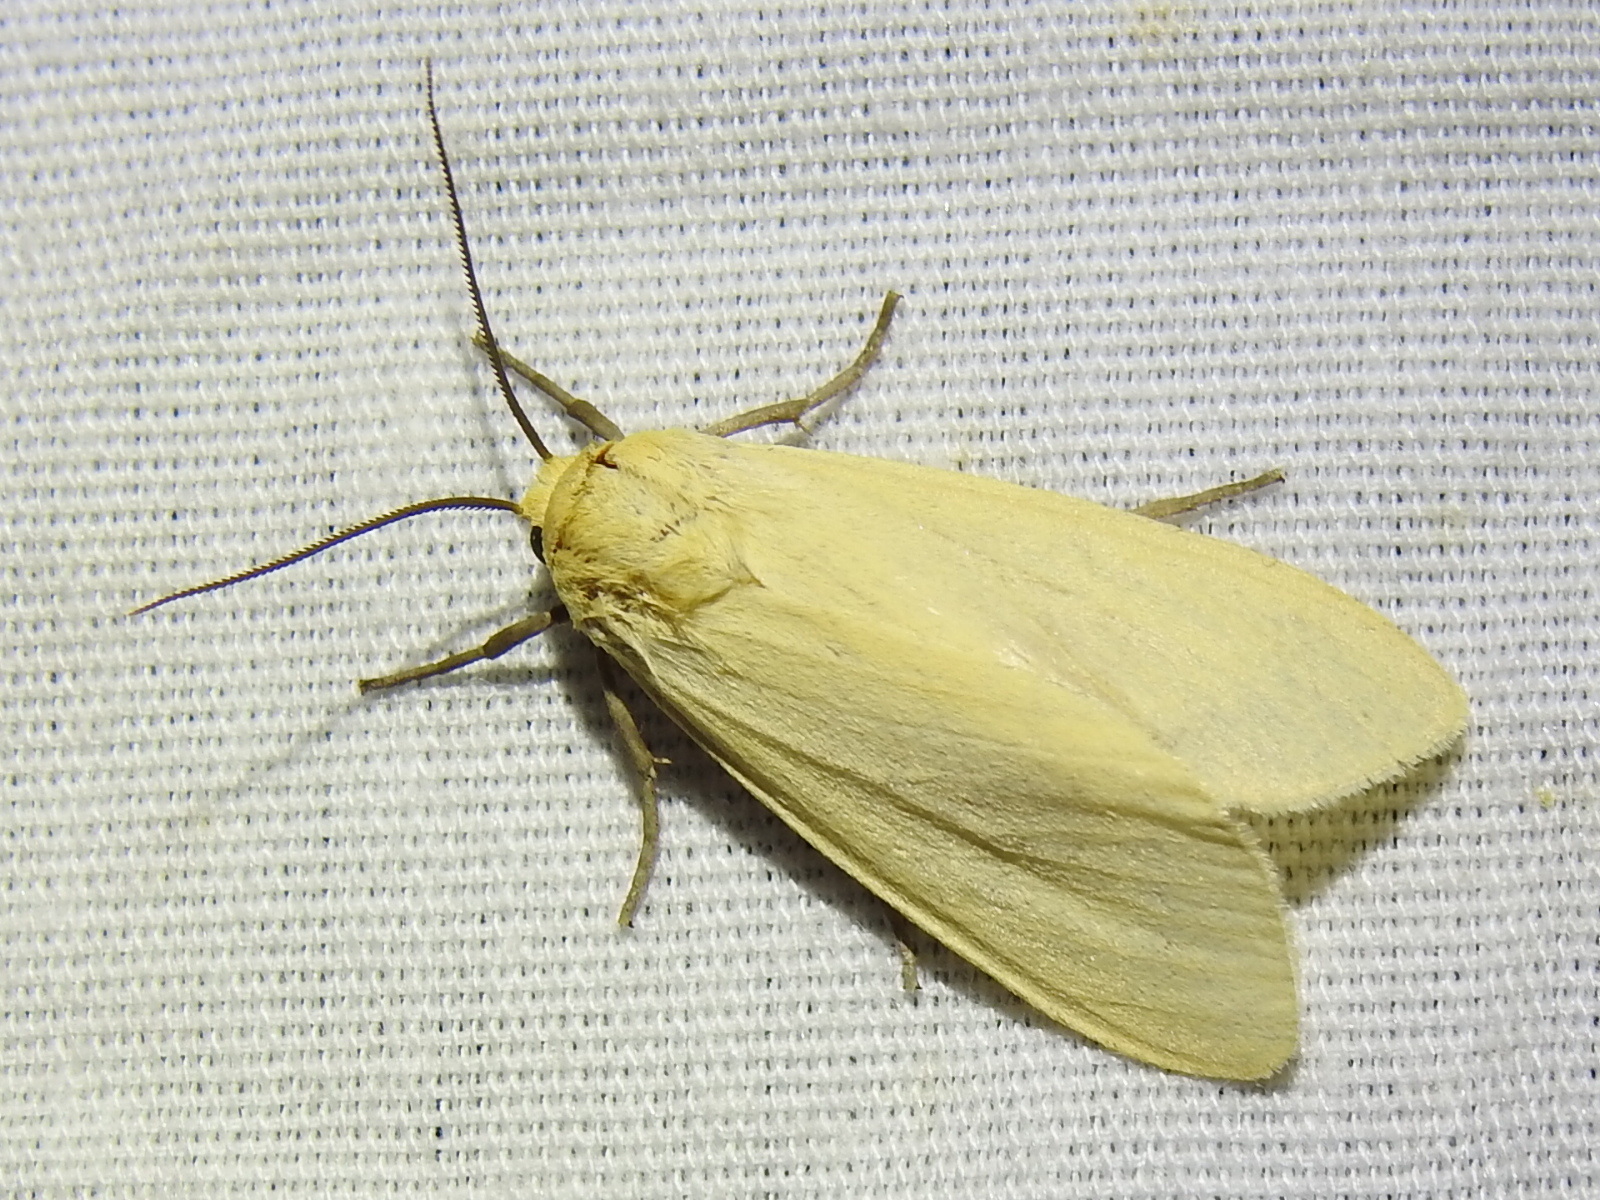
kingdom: Animalia
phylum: Arthropoda
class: Insecta
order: Lepidoptera
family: Erebidae
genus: Pareuchaetes
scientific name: Pareuchaetes insulata
